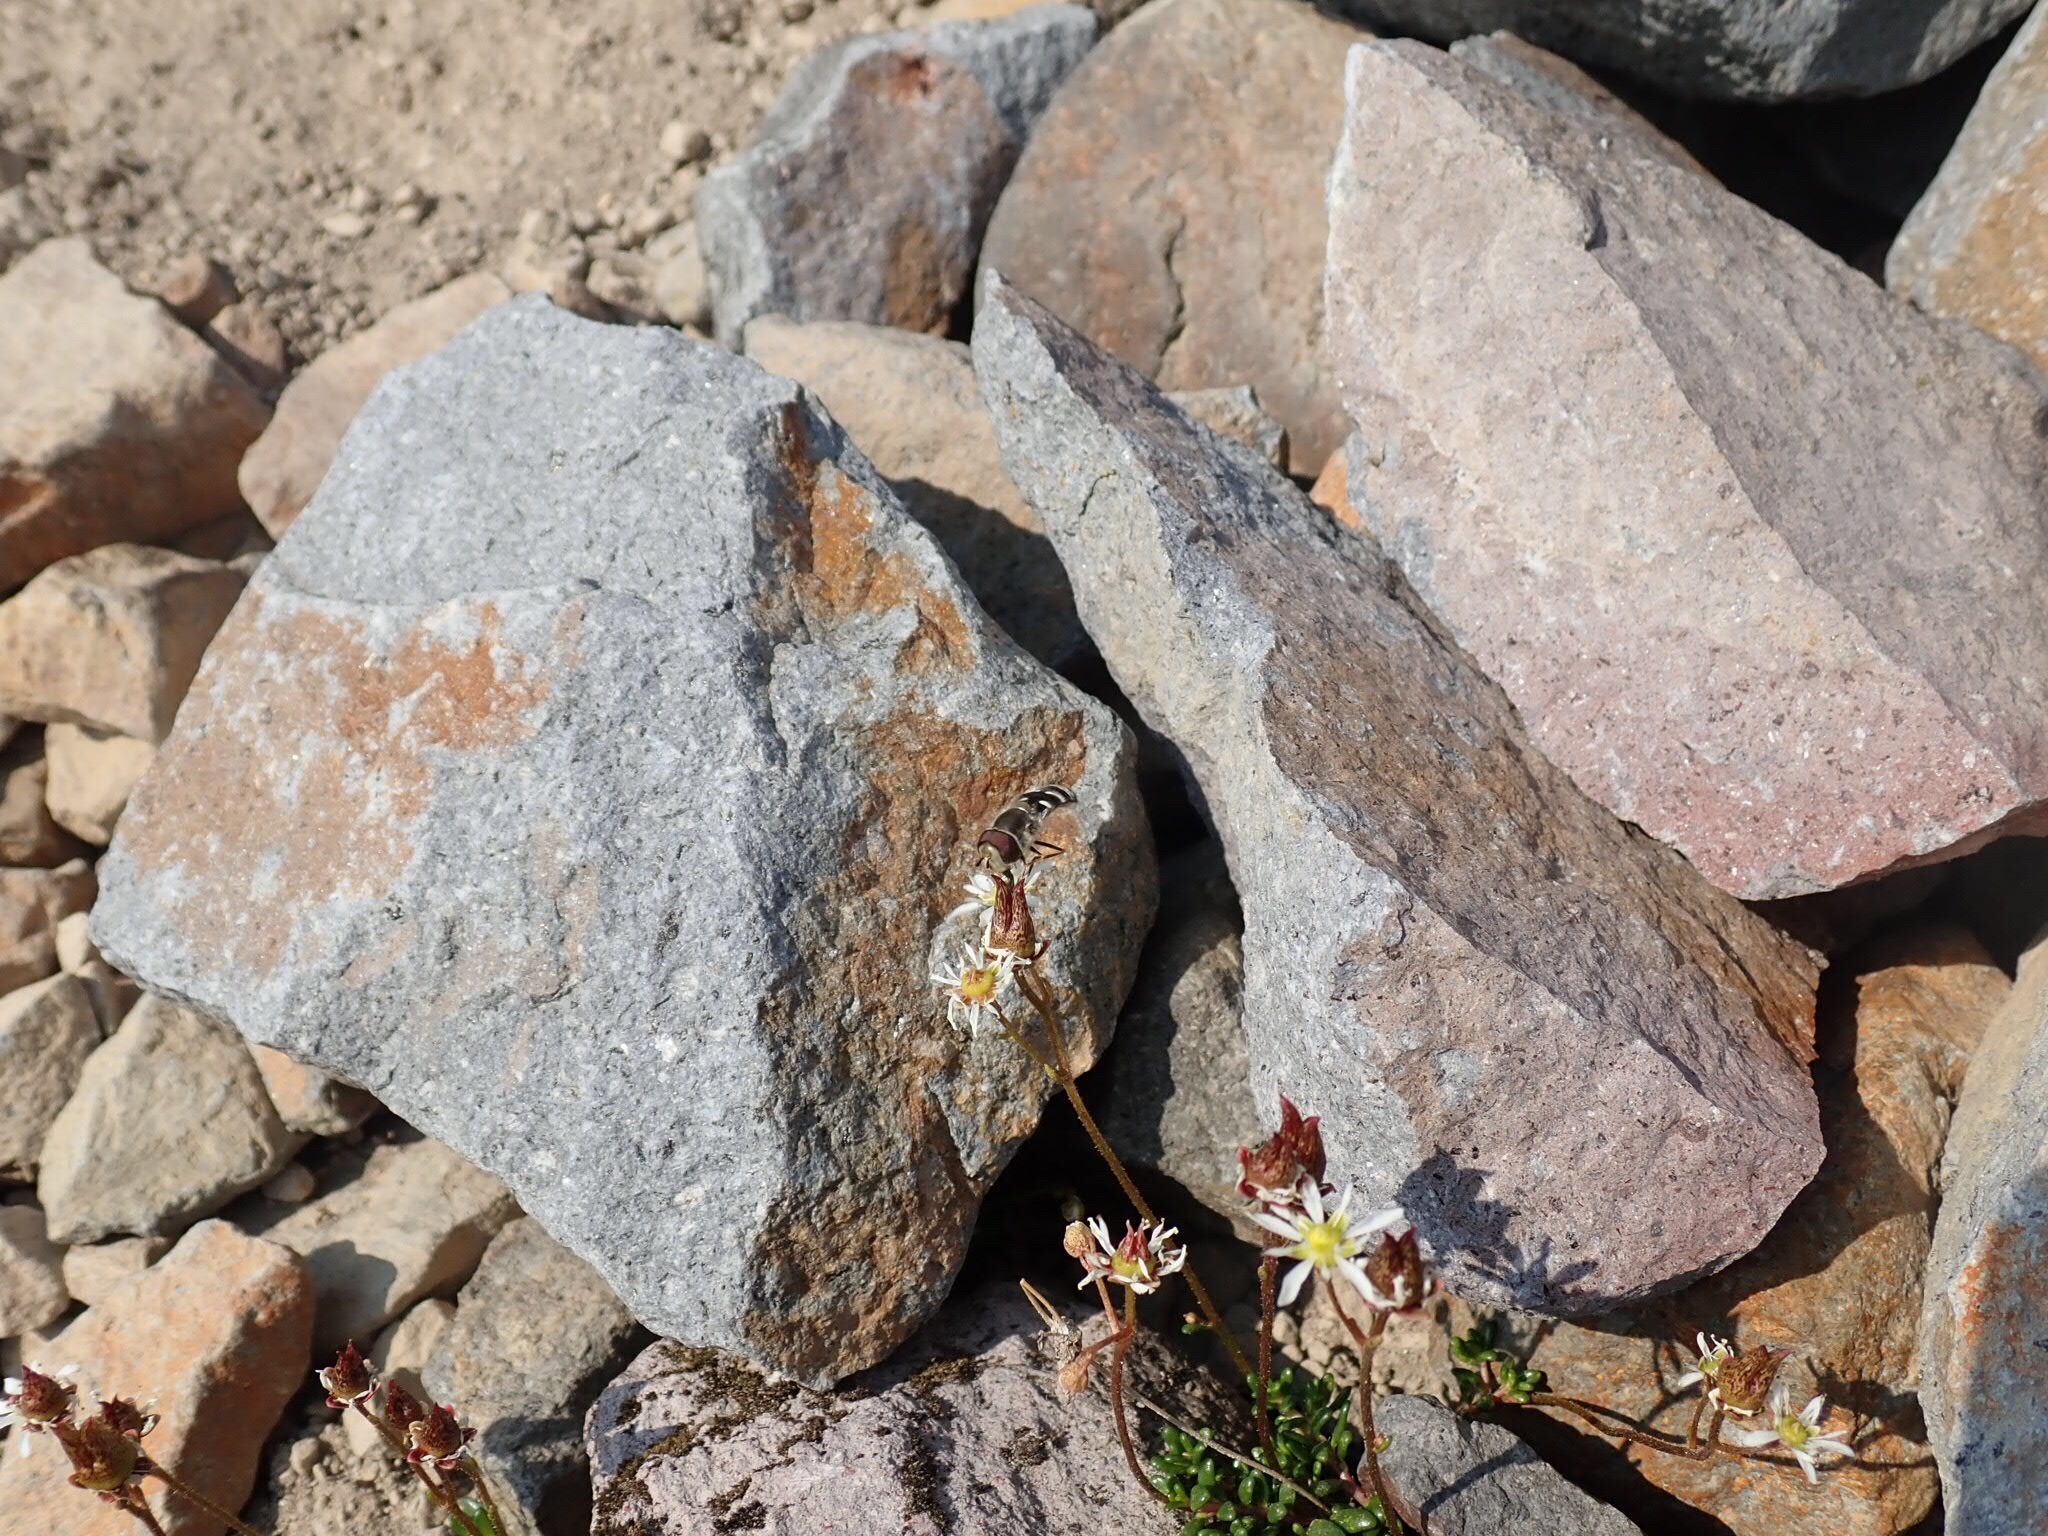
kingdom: Animalia
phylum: Arthropoda
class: Insecta
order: Diptera
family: Syrphidae
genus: Scaeva
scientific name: Scaeva affinis
